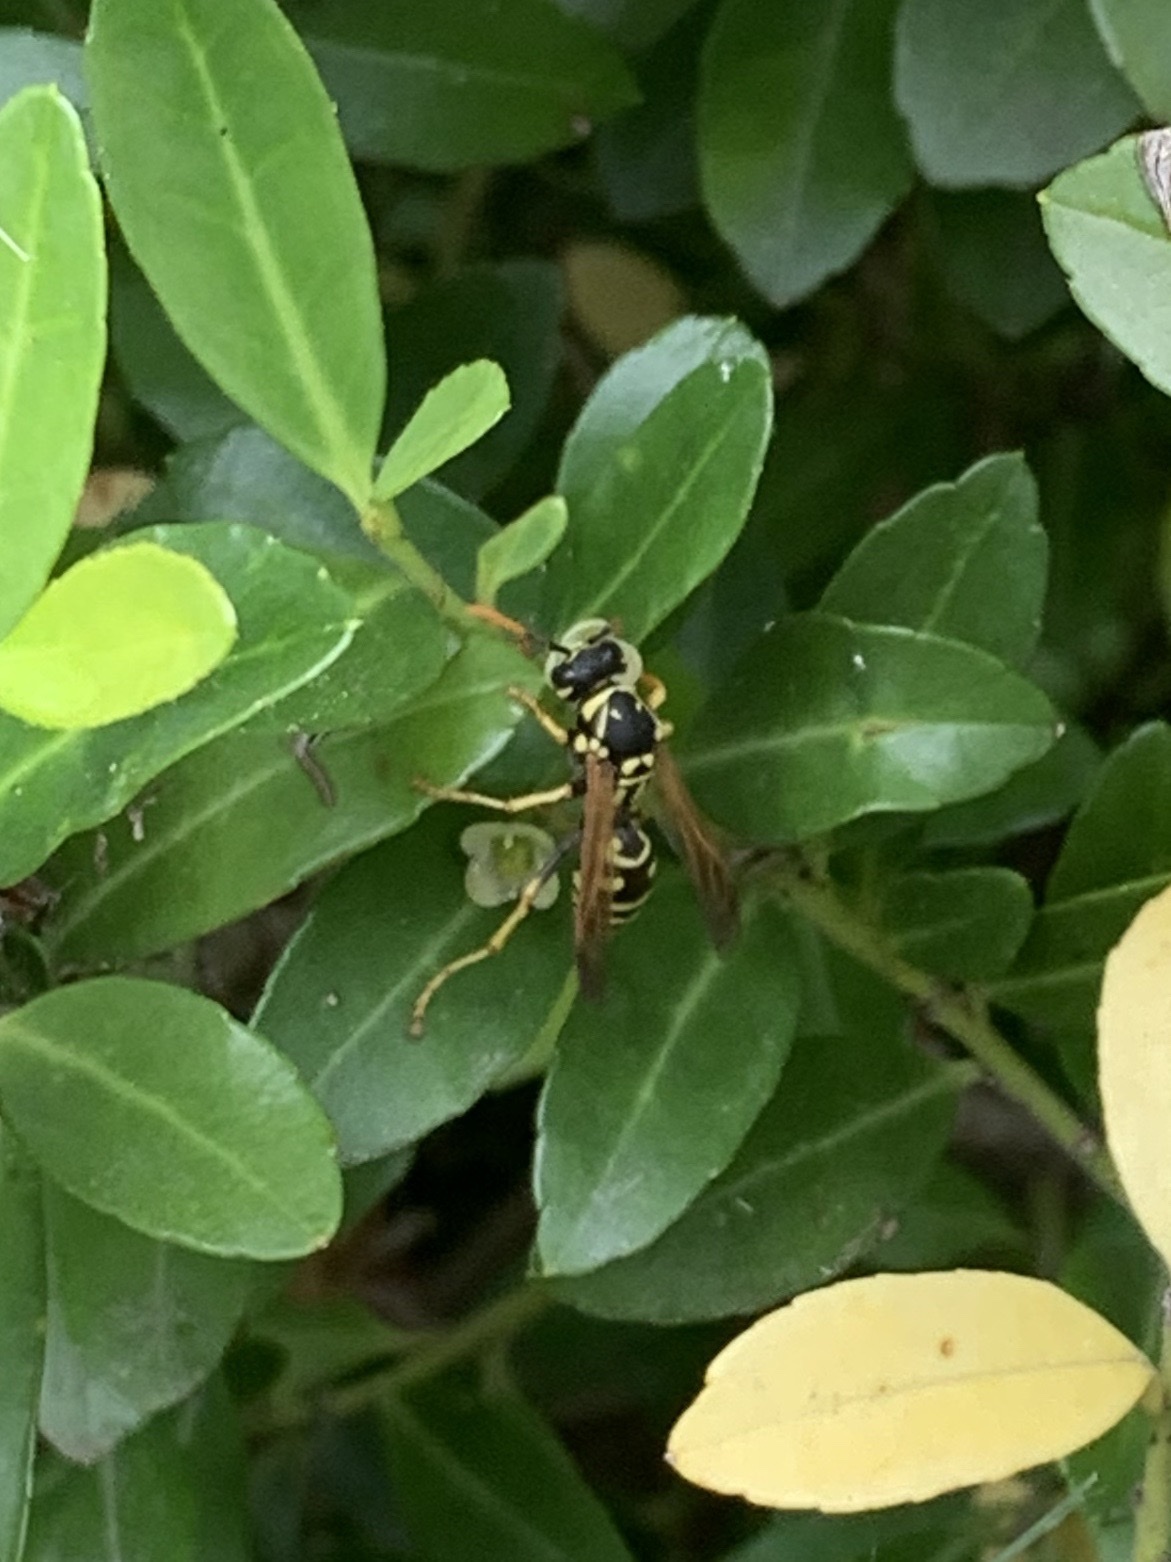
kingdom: Animalia
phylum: Arthropoda
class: Insecta
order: Hymenoptera
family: Eumenidae
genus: Polistes
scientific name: Polistes dominula
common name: Paper wasp
